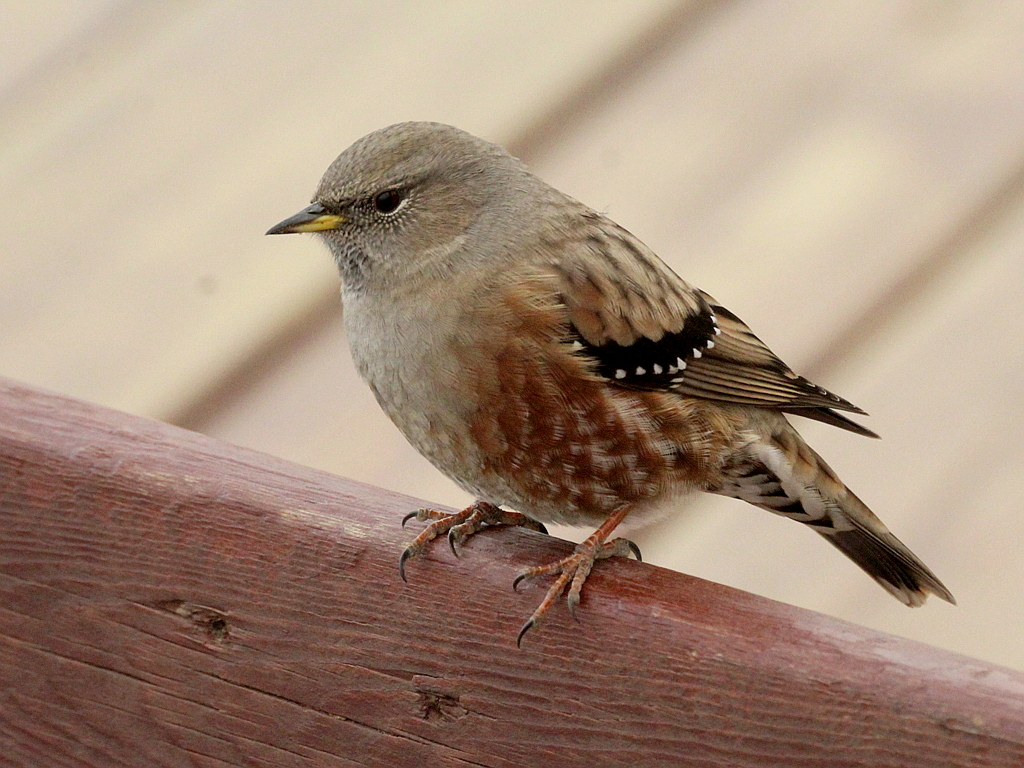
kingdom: Animalia
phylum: Chordata
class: Aves
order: Passeriformes
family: Prunellidae
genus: Prunella
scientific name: Prunella collaris
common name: Alpine accentor
